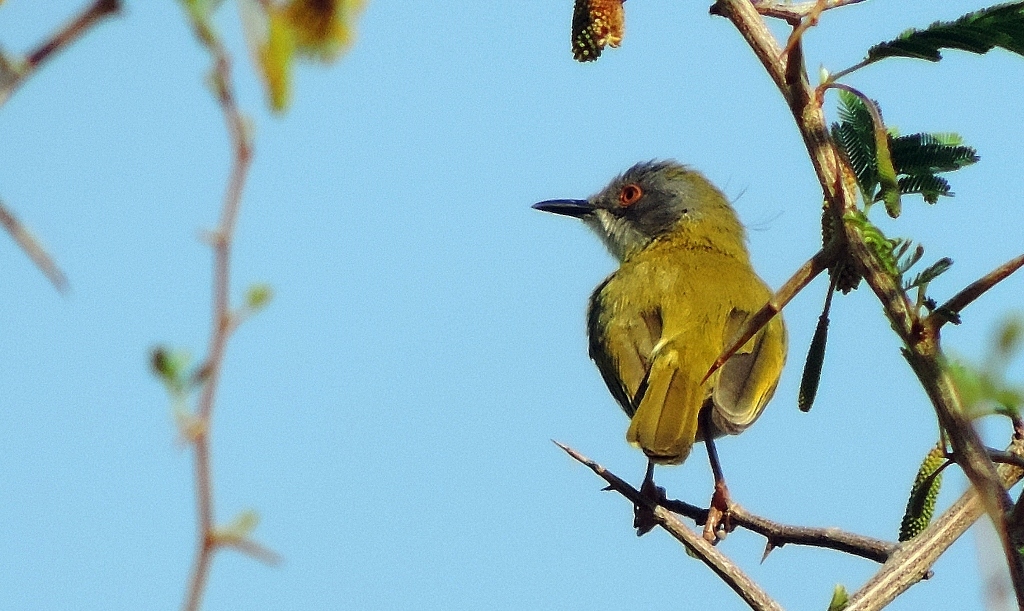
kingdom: Animalia
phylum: Chordata
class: Aves
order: Passeriformes
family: Cisticolidae
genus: Apalis
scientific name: Apalis flavida
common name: Yellow-breasted apalis
